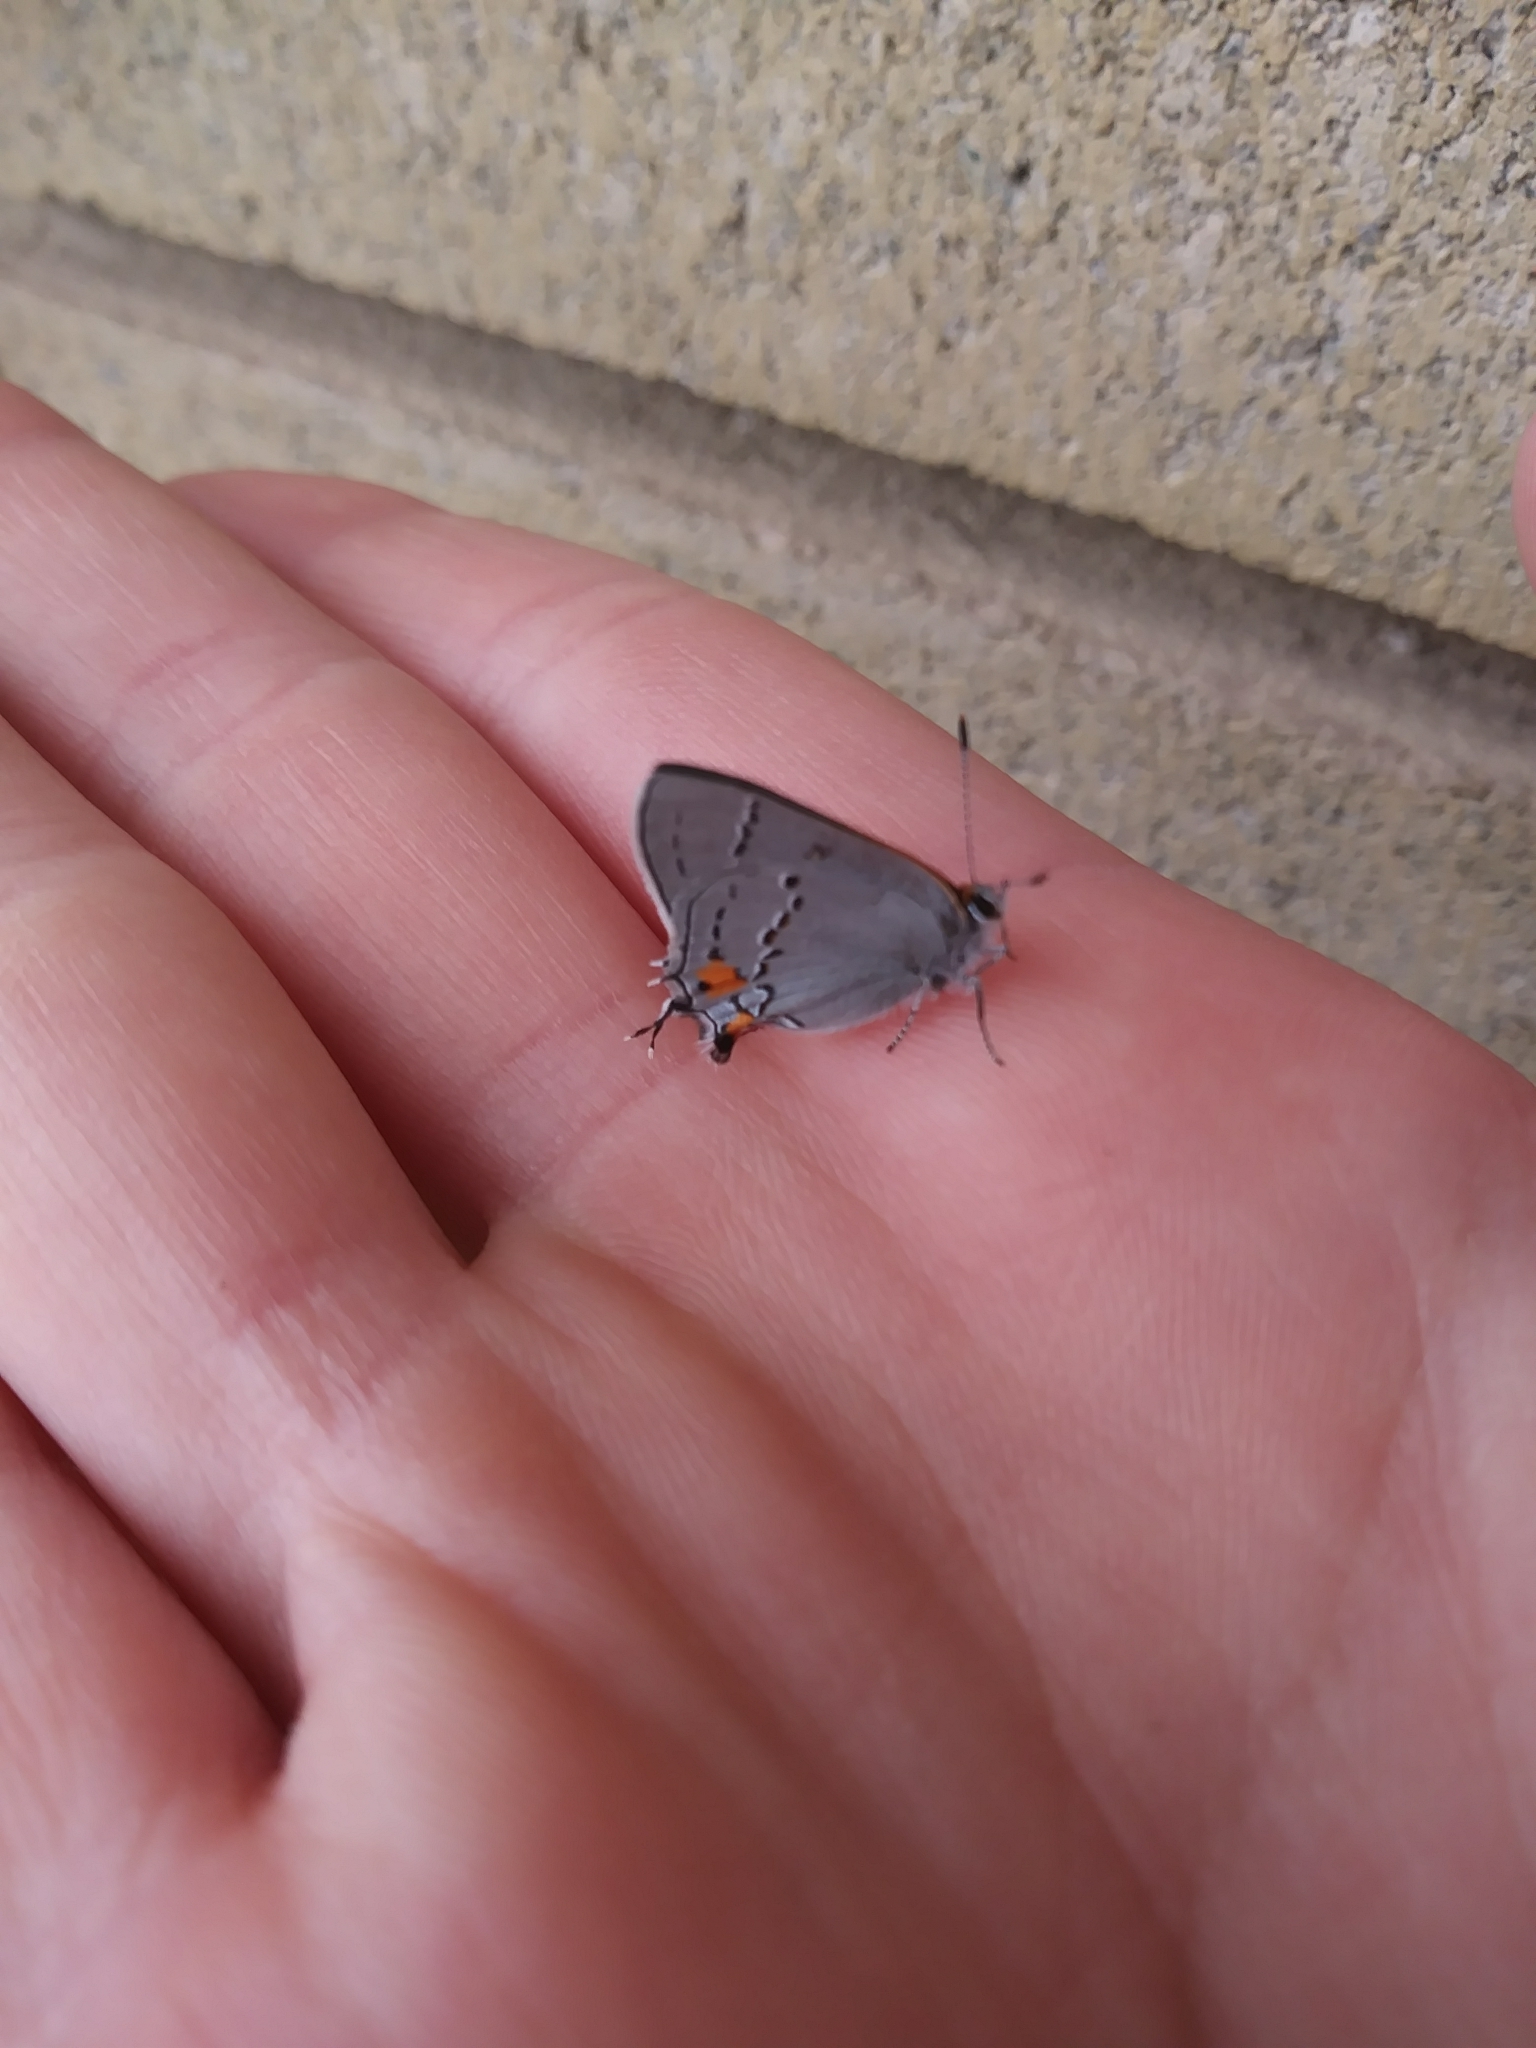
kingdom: Animalia
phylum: Arthropoda
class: Insecta
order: Lepidoptera
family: Lycaenidae
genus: Strymon
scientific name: Strymon melinus
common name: Gray hairstreak
